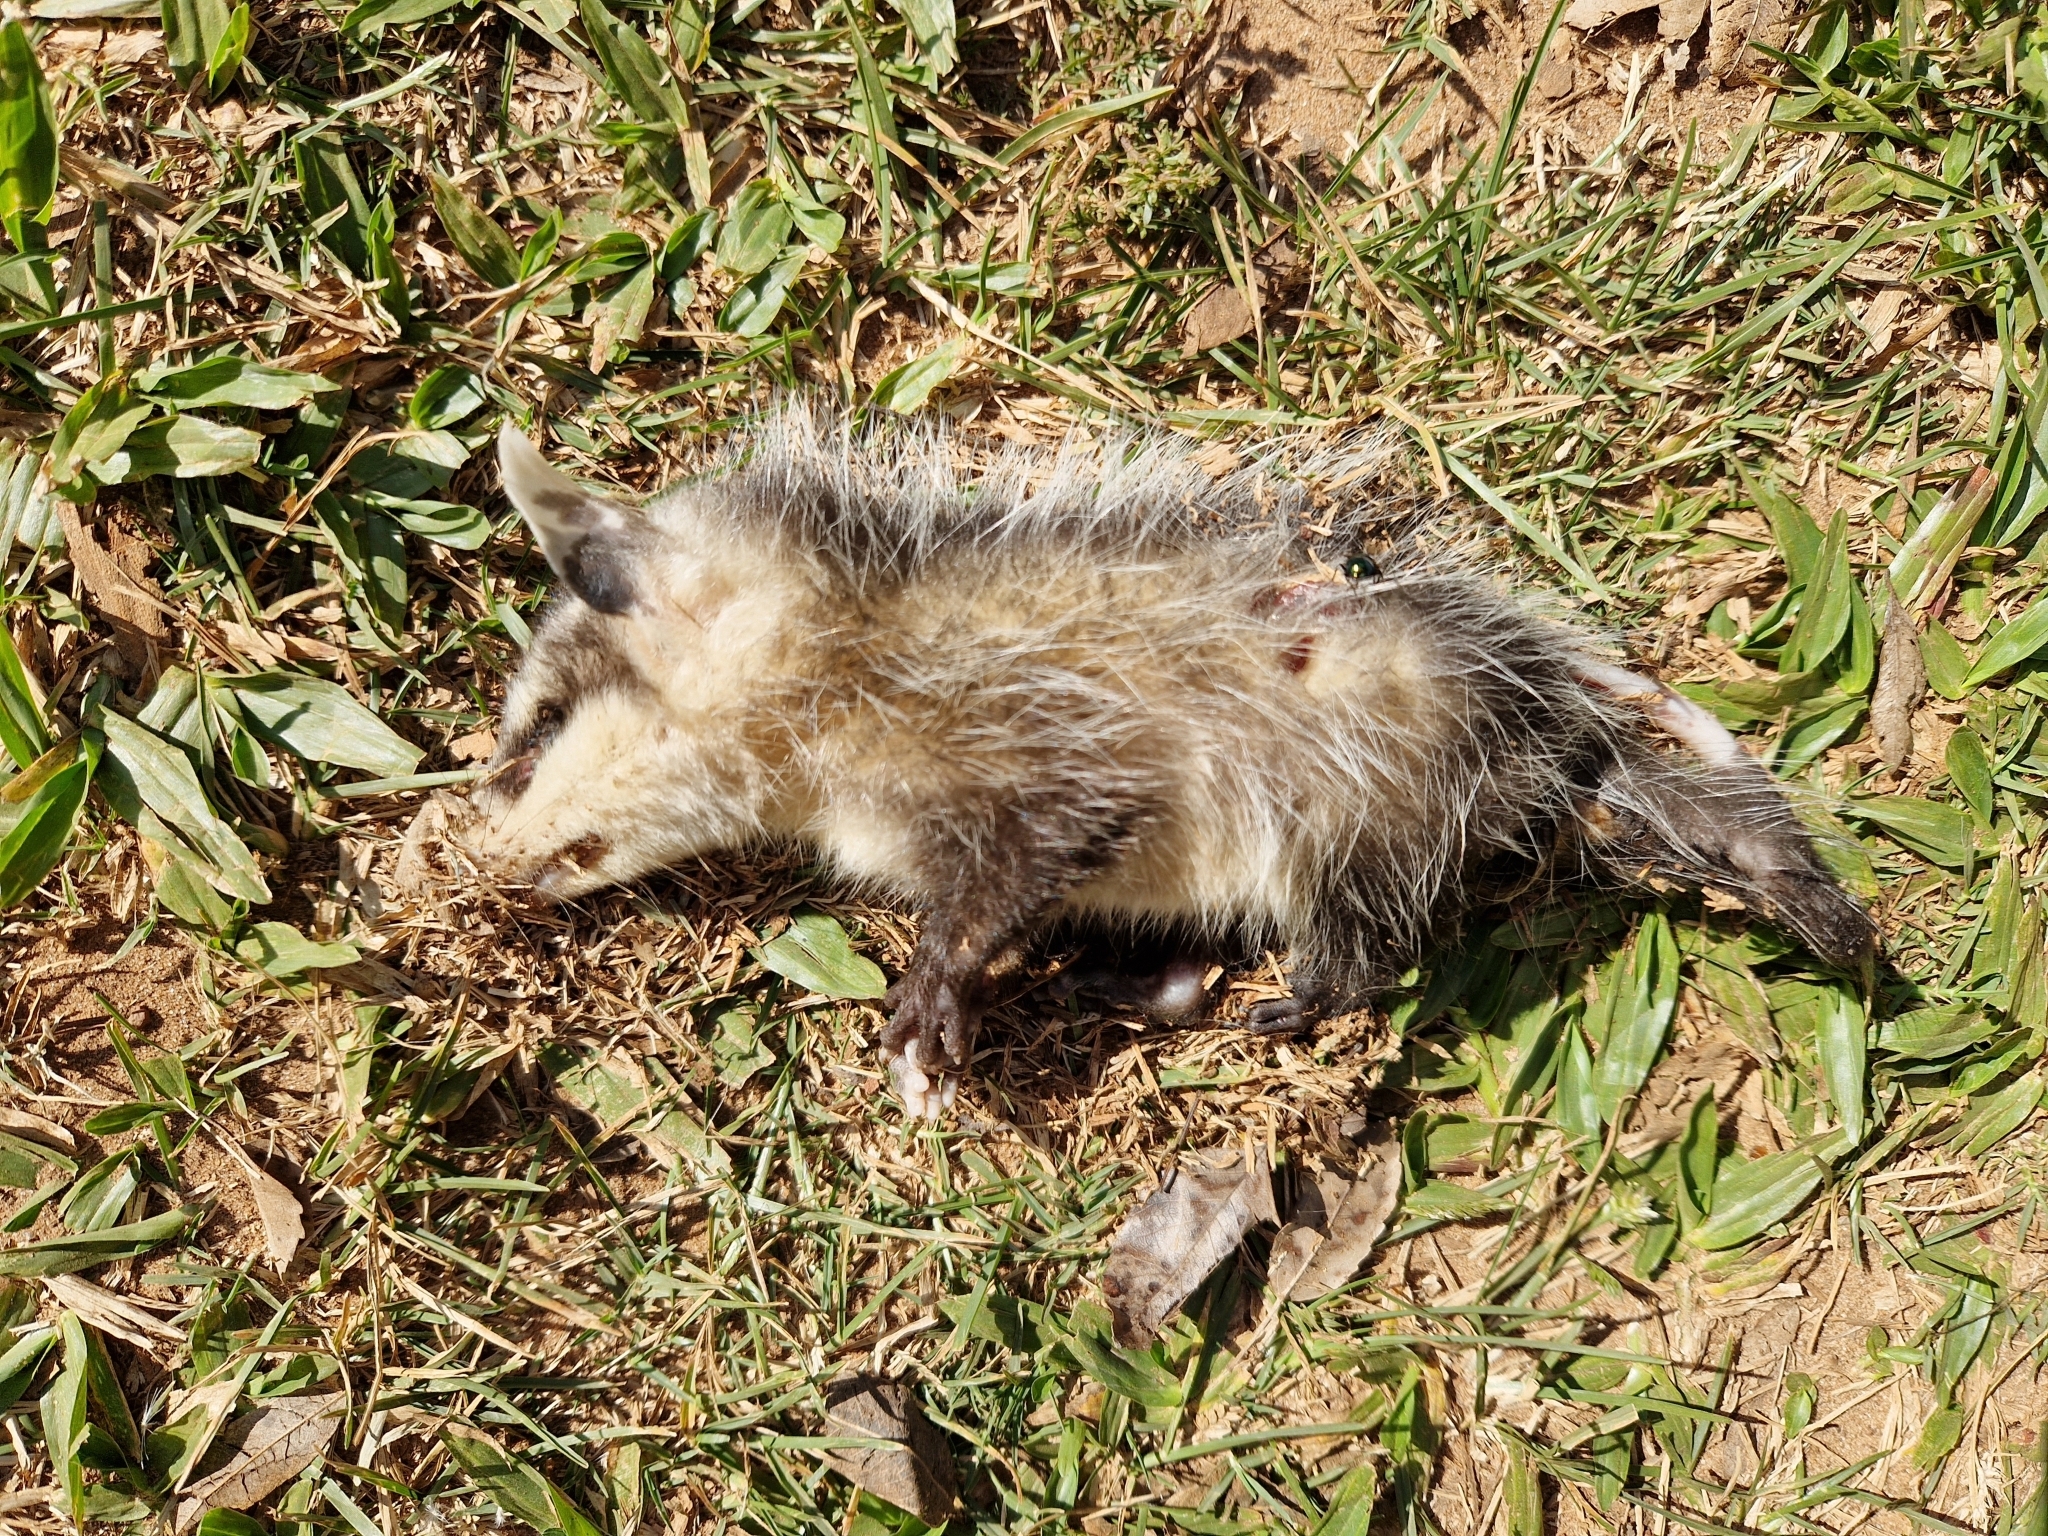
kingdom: Animalia
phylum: Chordata
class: Mammalia
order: Didelphimorphia
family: Didelphidae
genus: Didelphis
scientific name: Didelphis albiventris
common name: White-eared opossum
